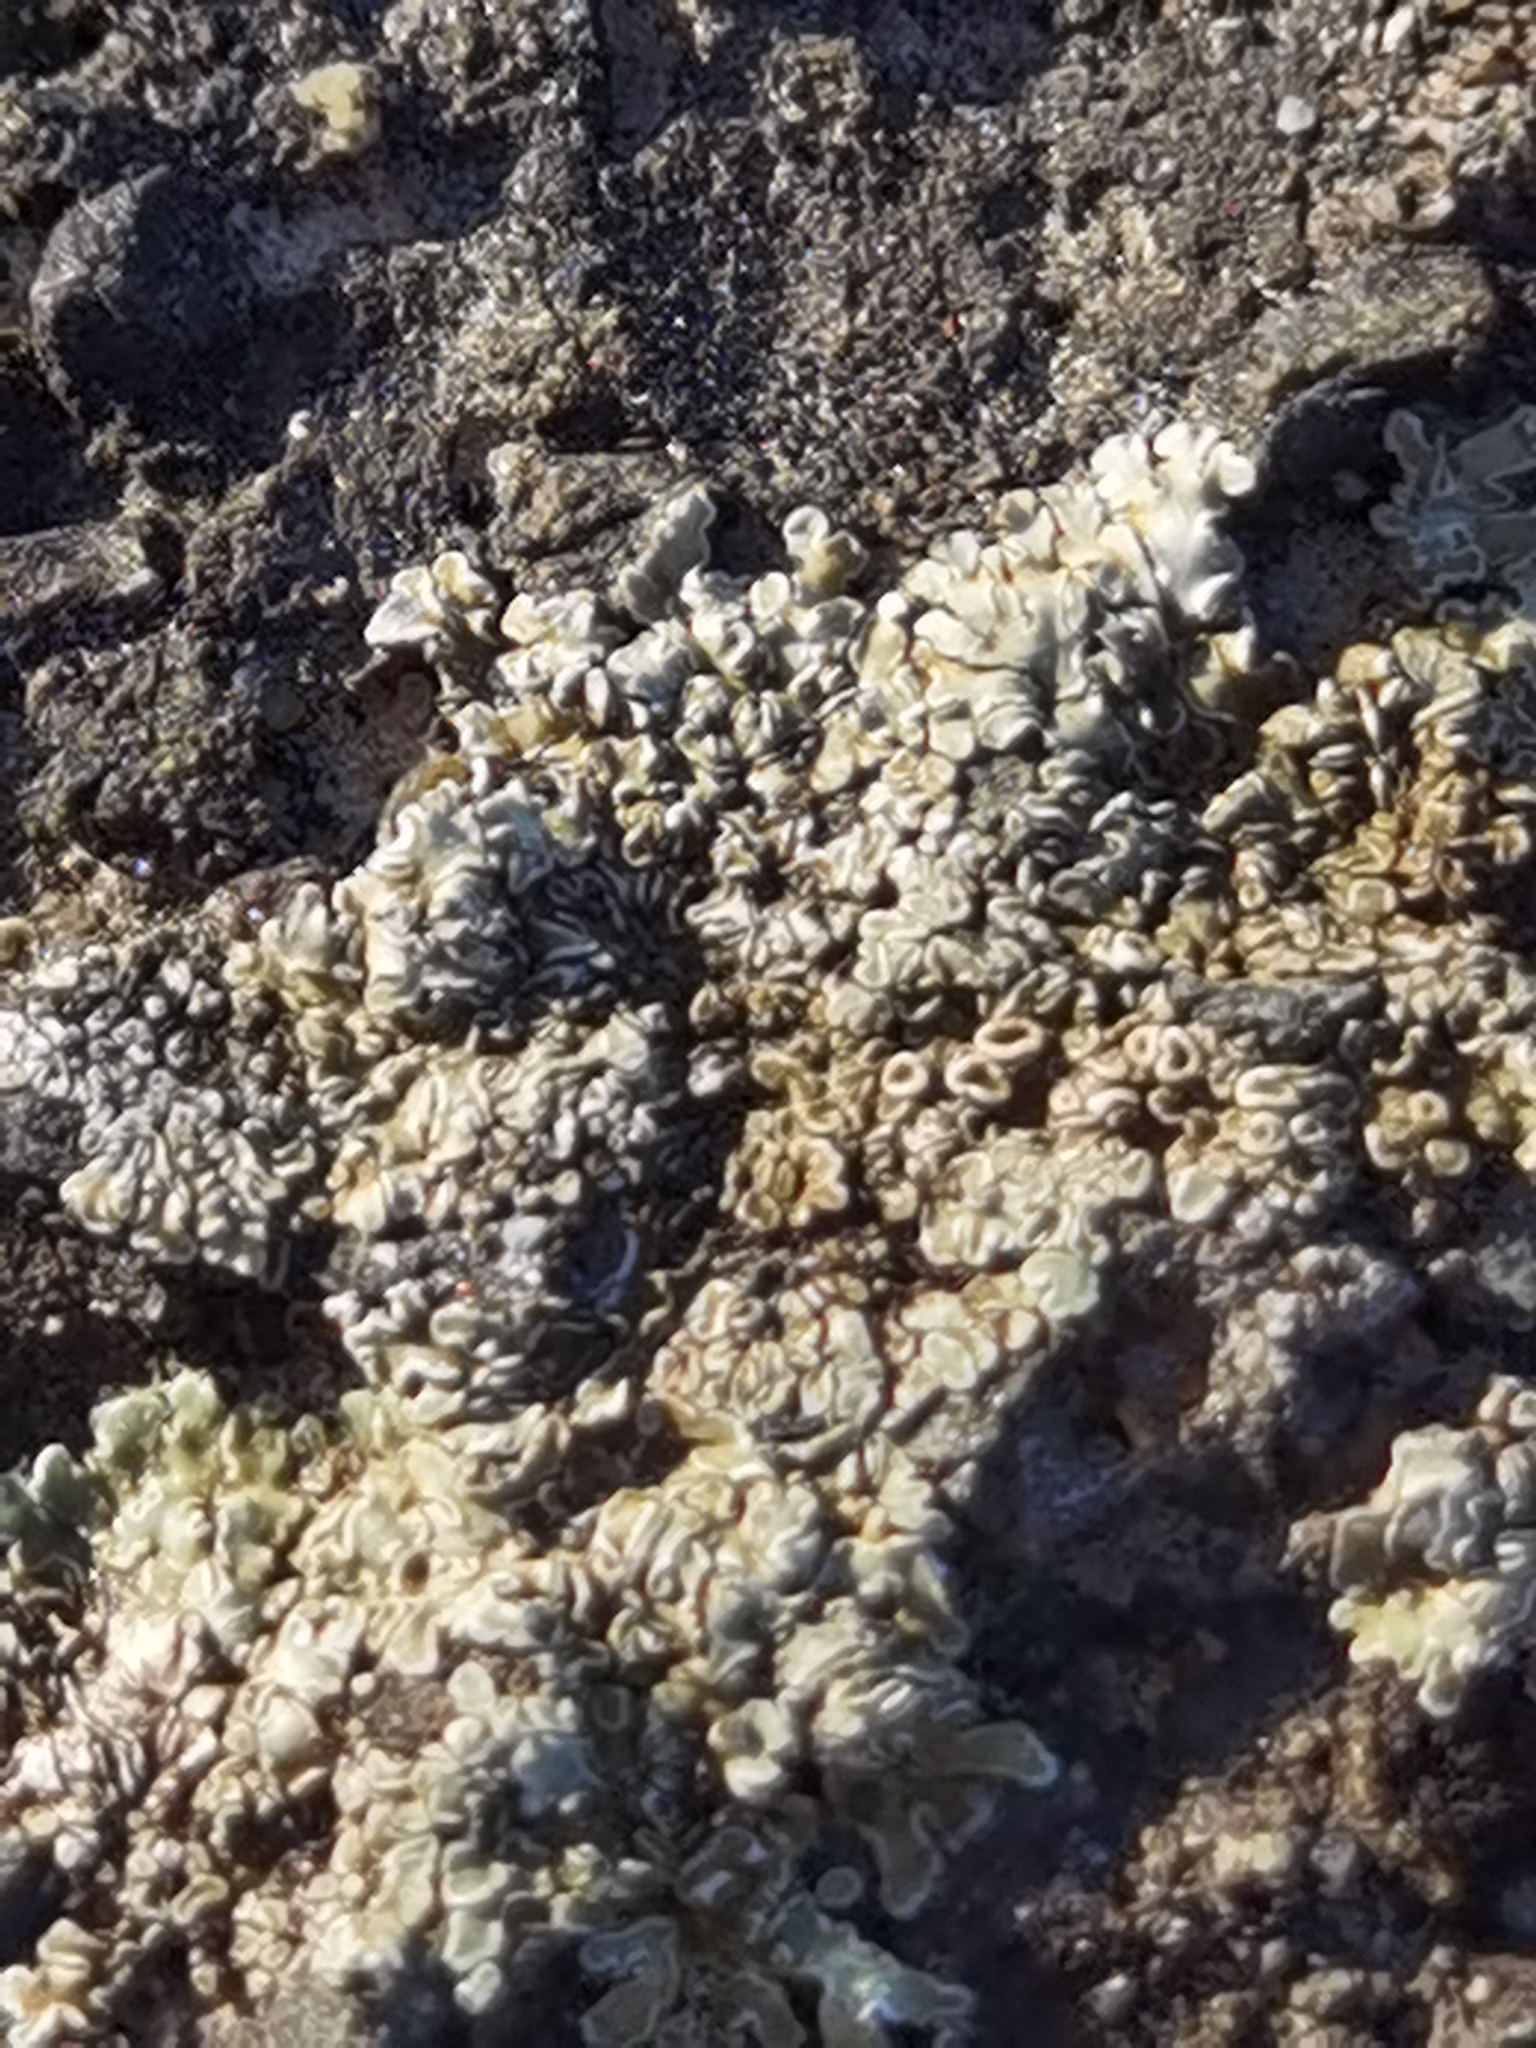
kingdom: Fungi
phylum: Ascomycota
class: Lecanoromycetes
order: Lecanorales
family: Lecanoraceae
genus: Protoparmeliopsis
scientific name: Protoparmeliopsis muralis
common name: Stonewall rim lichen
